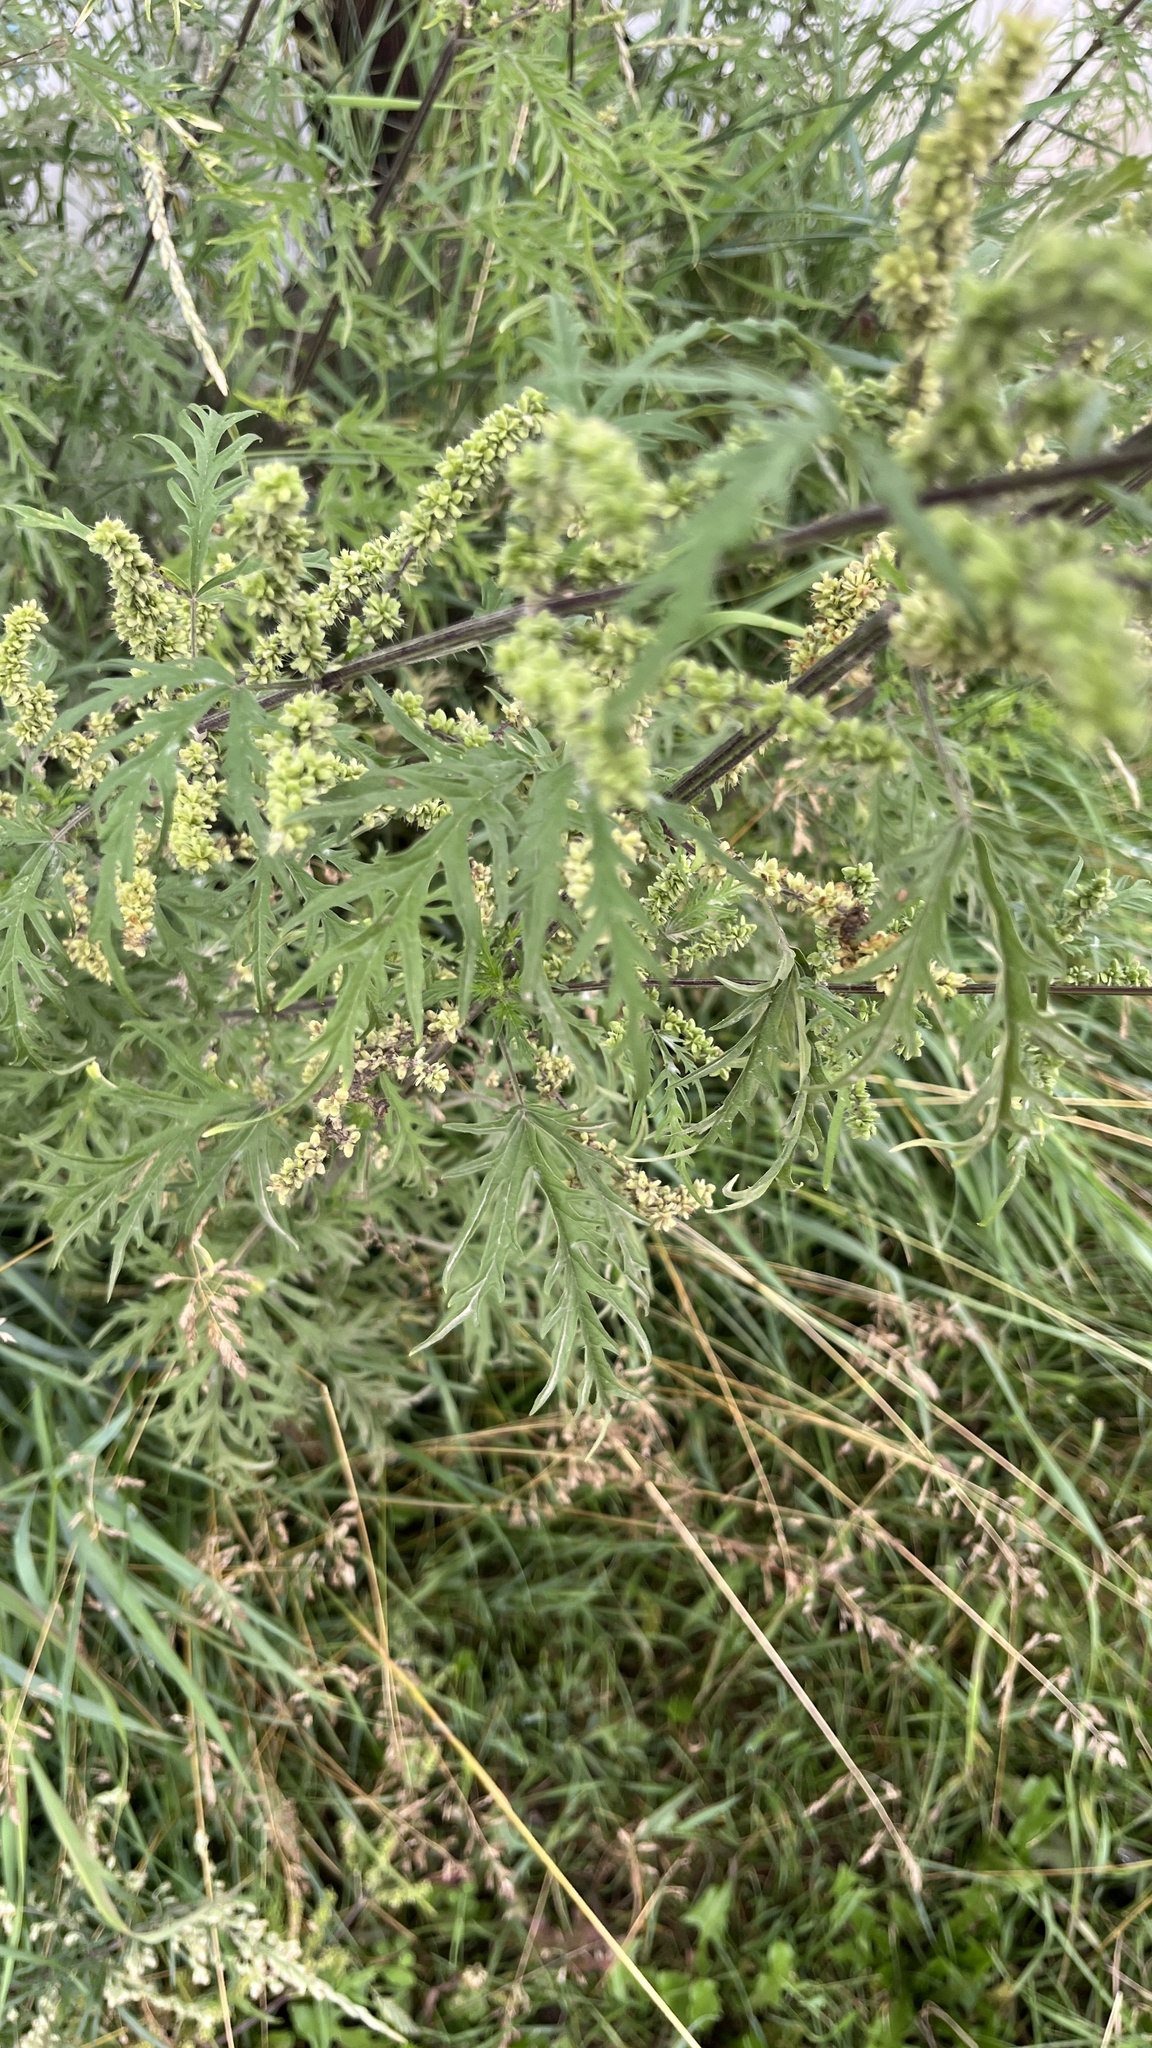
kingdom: Plantae
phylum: Tracheophyta
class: Magnoliopsida
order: Rosales
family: Urticaceae
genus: Urtica
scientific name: Urtica cannabina
